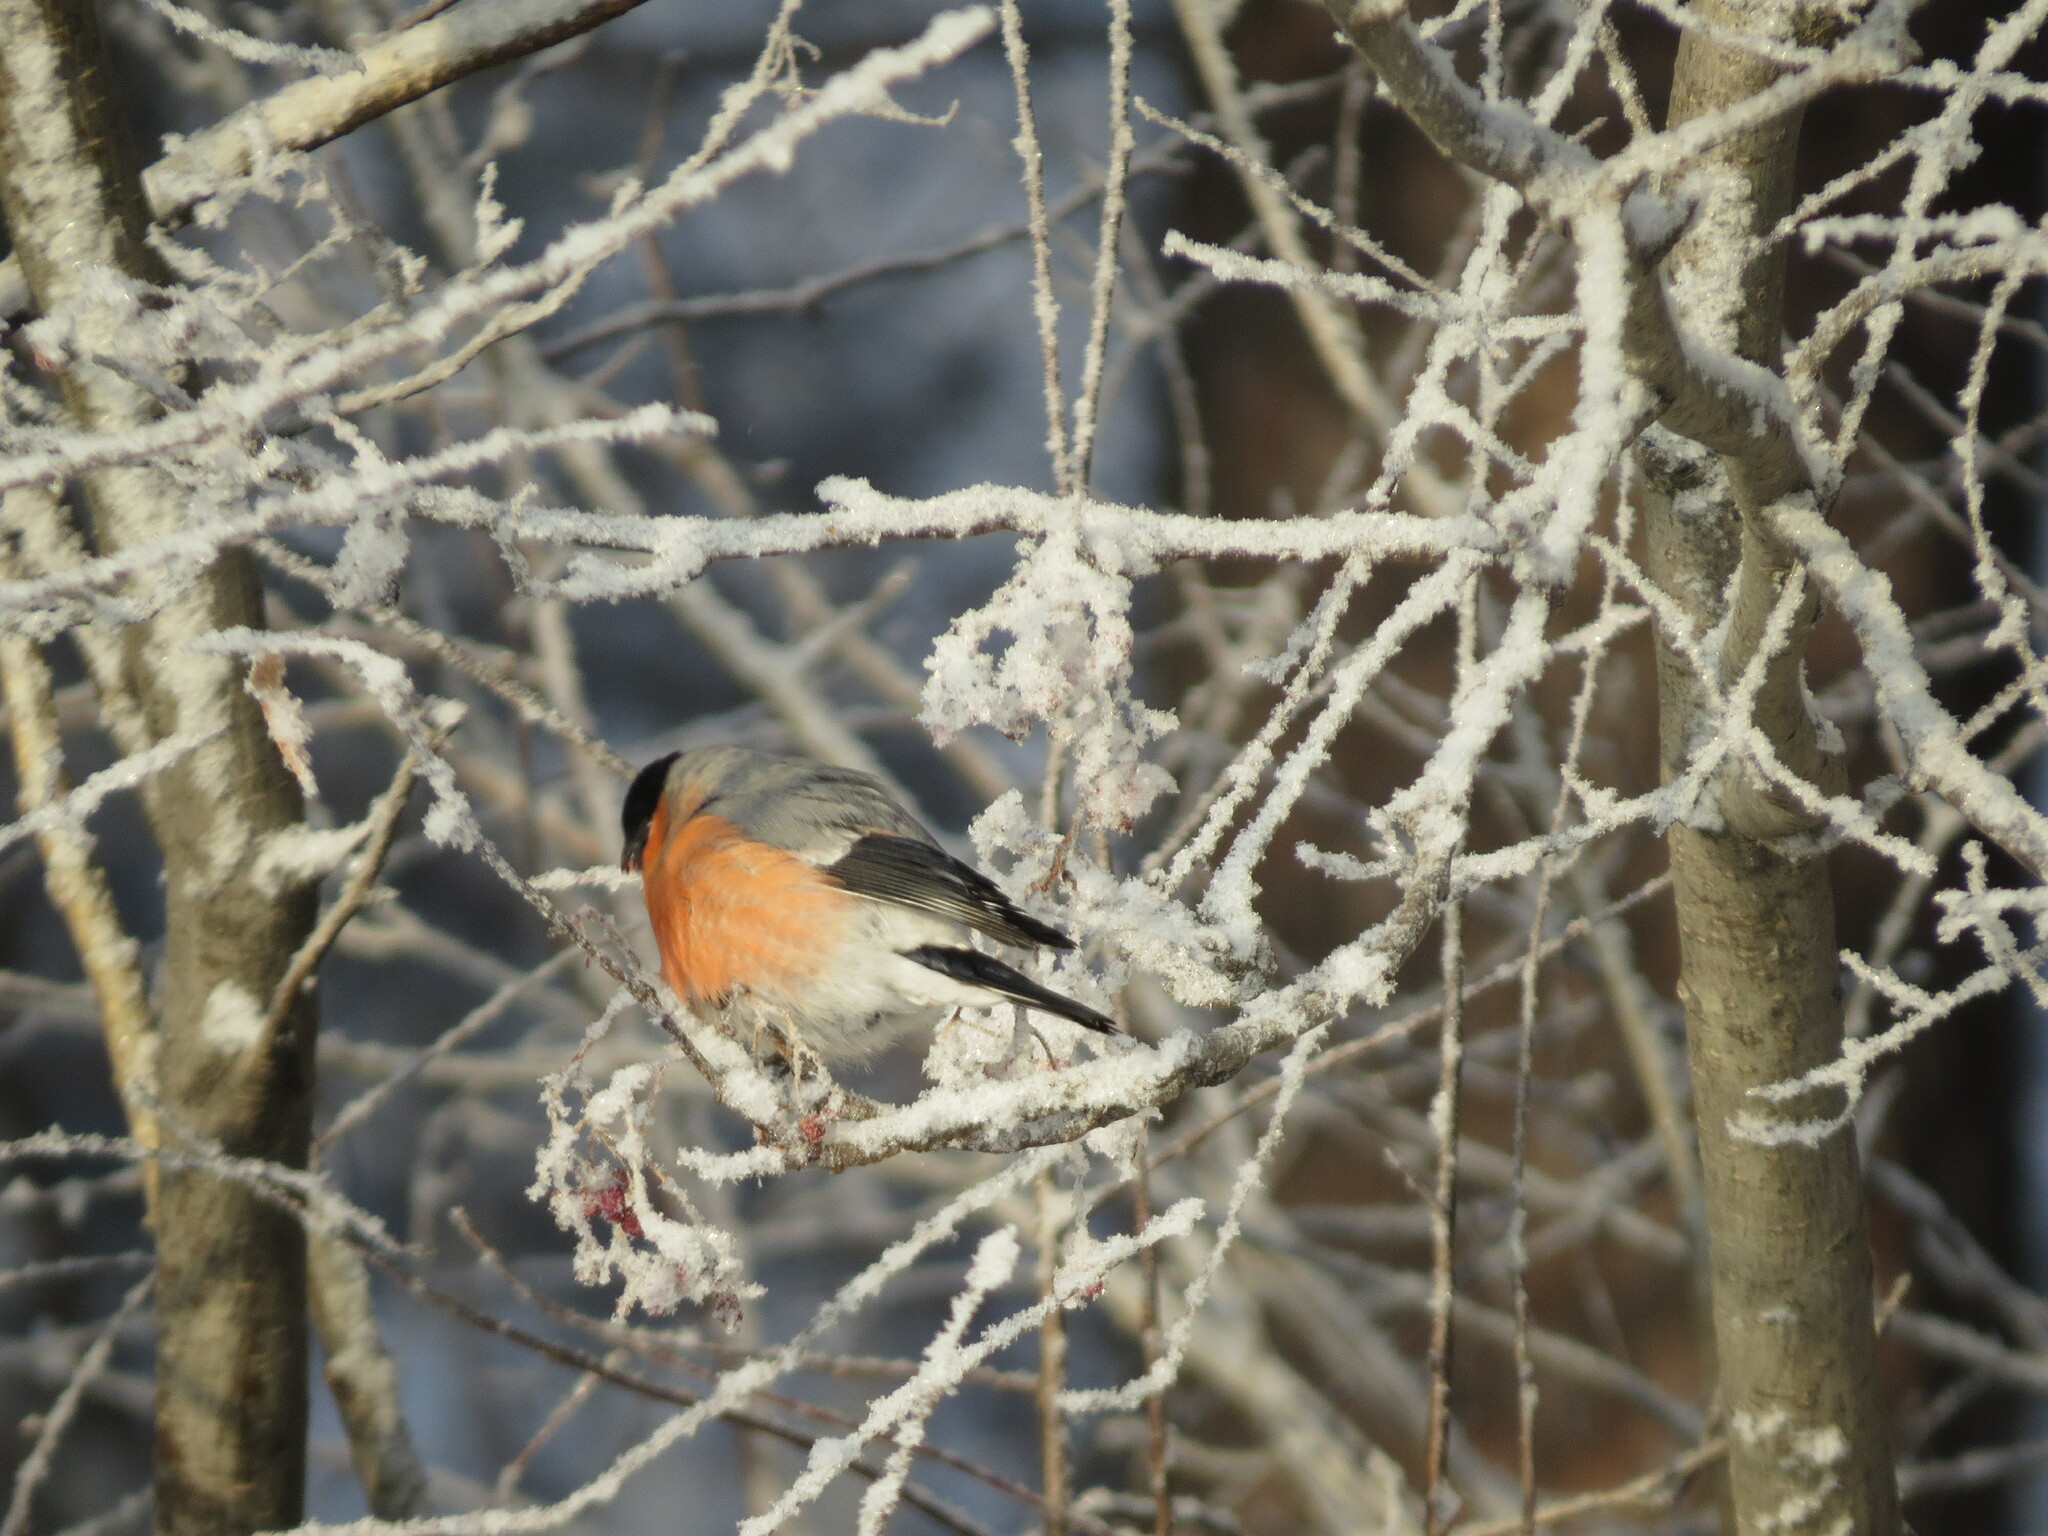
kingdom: Animalia
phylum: Chordata
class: Aves
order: Passeriformes
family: Fringillidae
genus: Pyrrhula
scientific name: Pyrrhula pyrrhula
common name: Eurasian bullfinch
